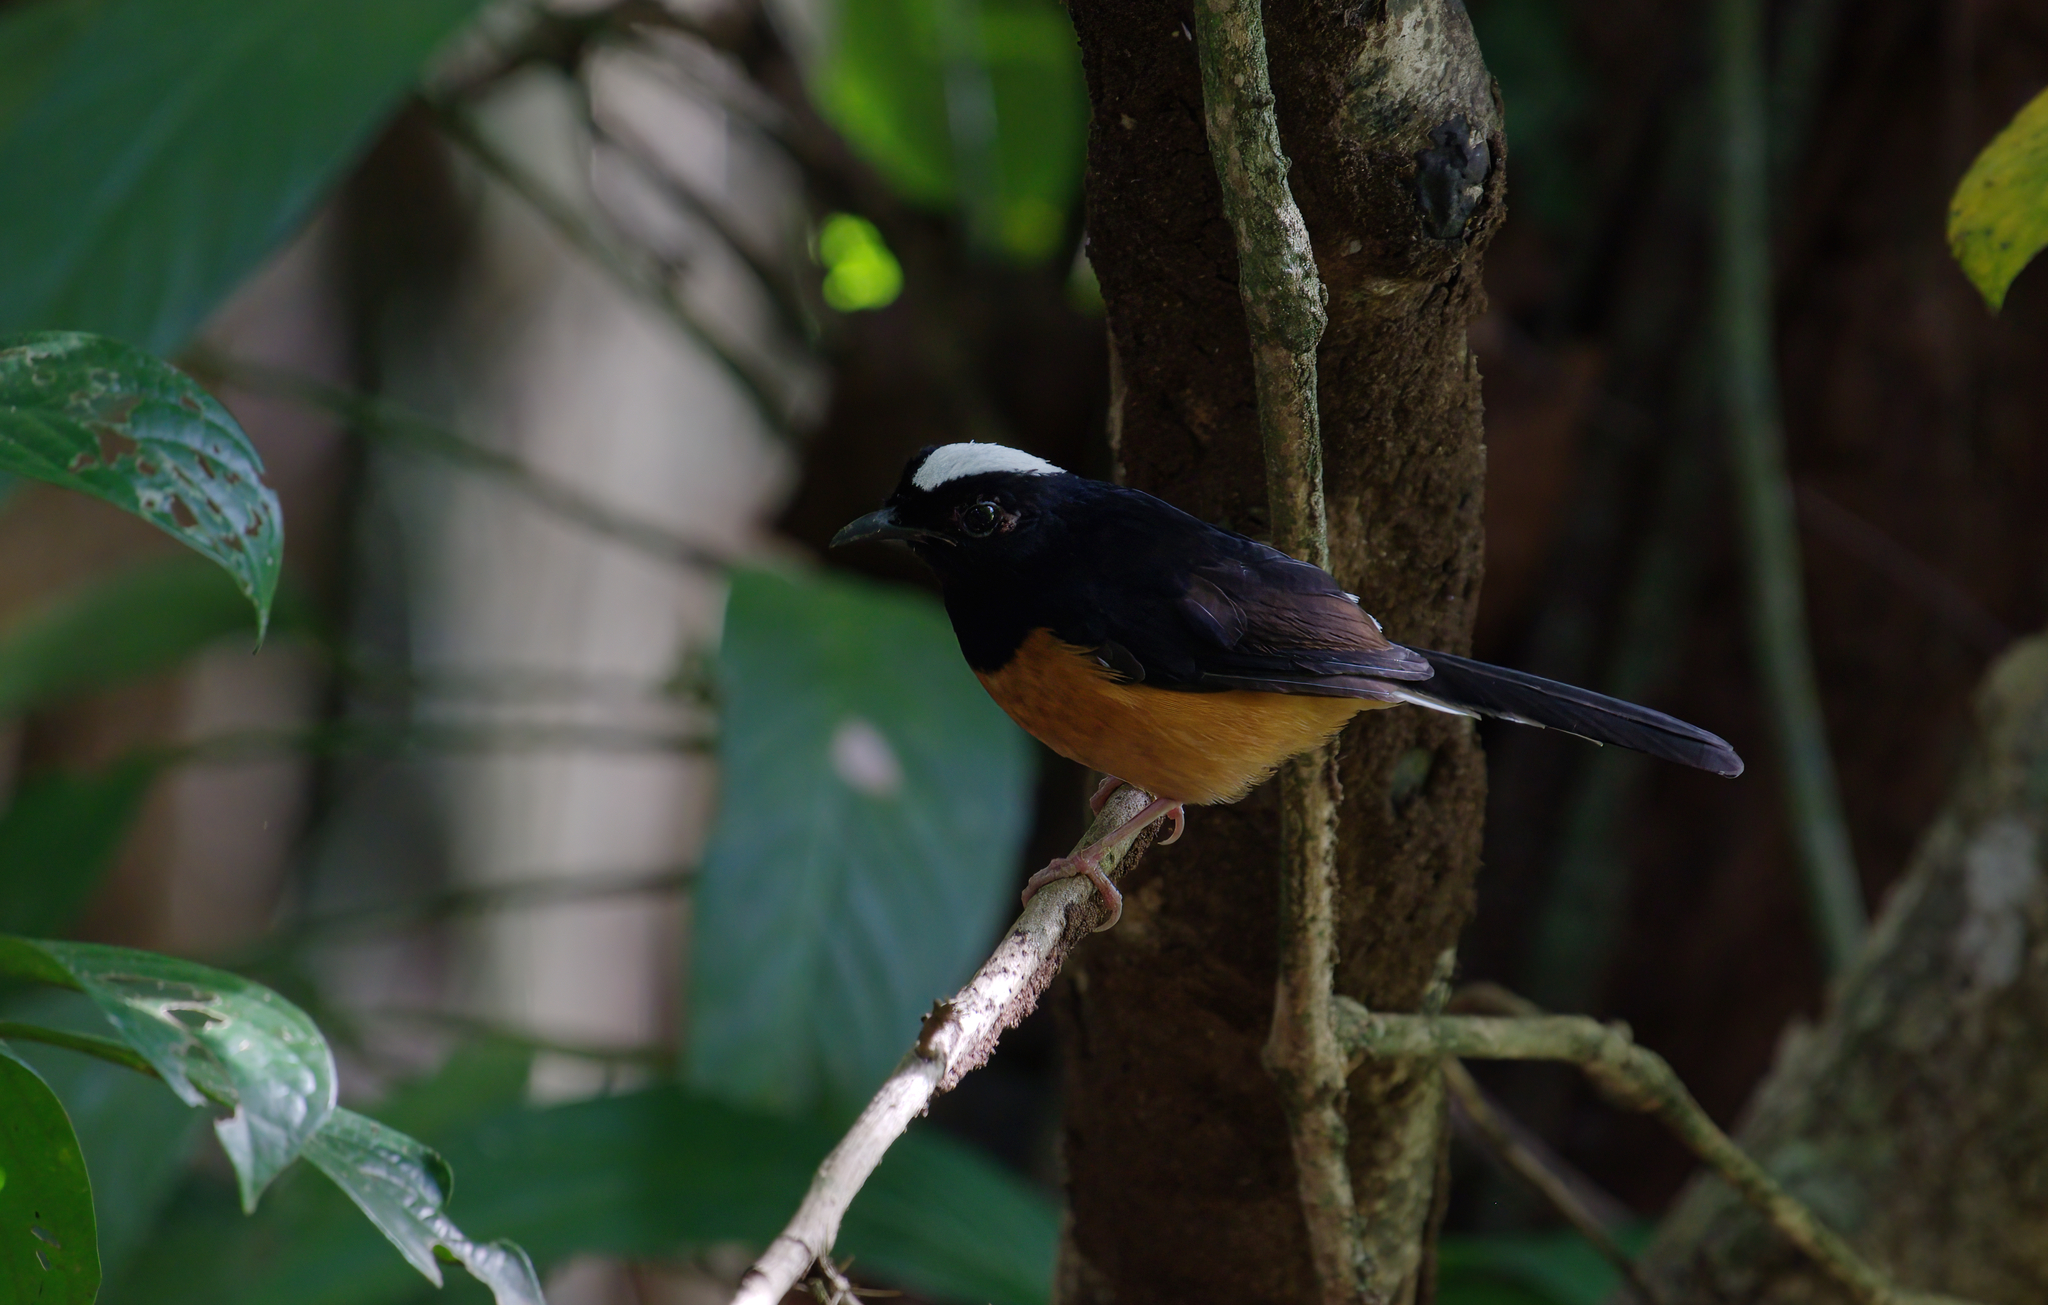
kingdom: Animalia
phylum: Chordata
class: Aves
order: Passeriformes
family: Muscicapidae
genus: Copsychus
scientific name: Copsychus stricklandii
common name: White-crowned shama
